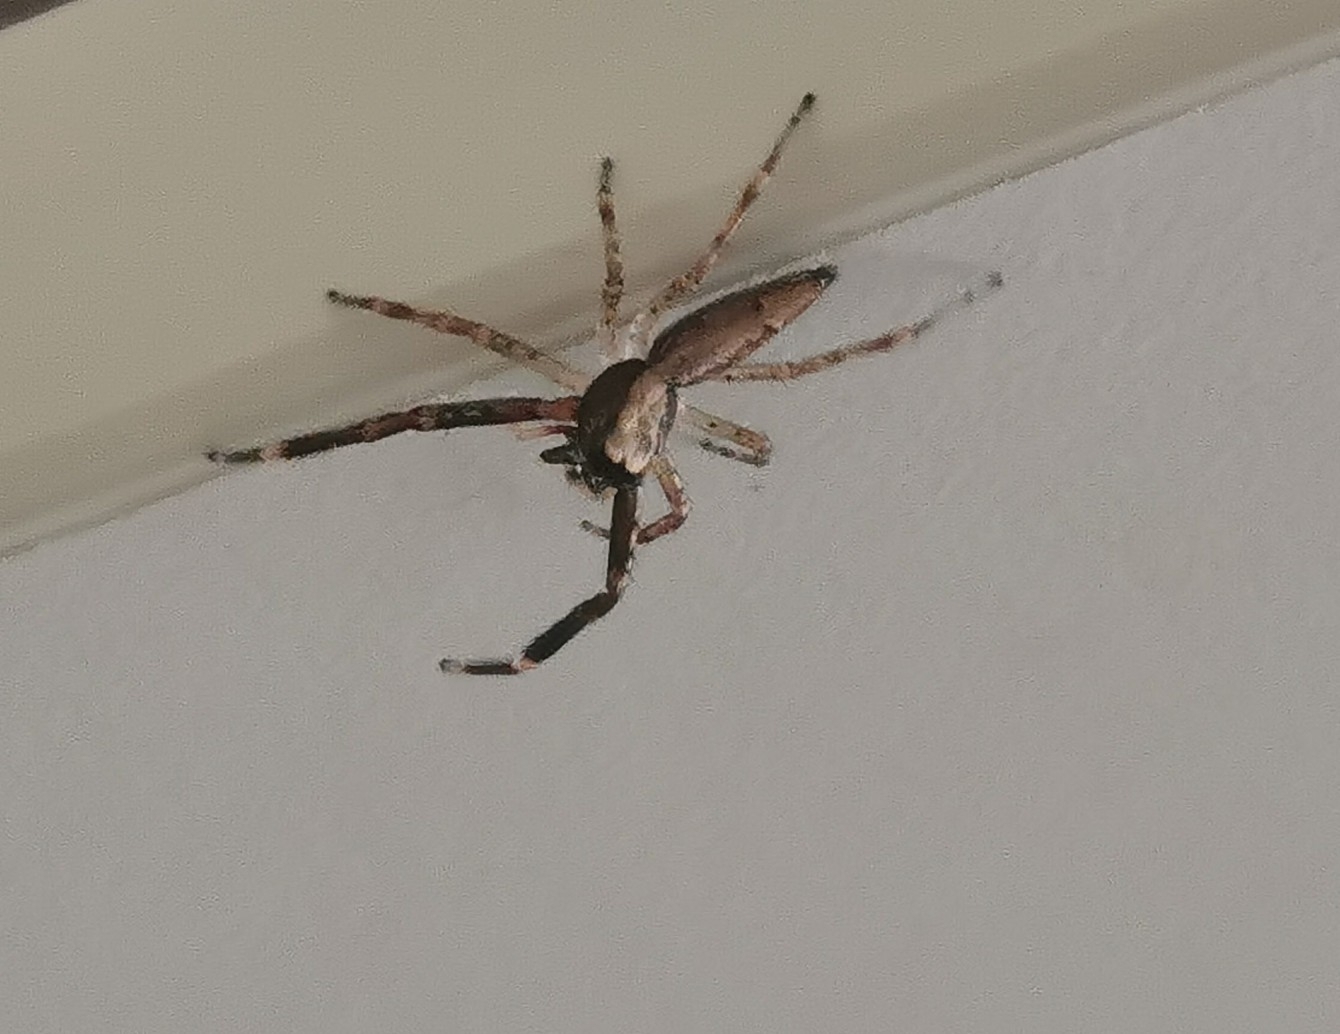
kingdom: Animalia
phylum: Arthropoda
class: Arachnida
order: Araneae
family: Salticidae
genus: Helpis
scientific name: Helpis minitabunda
